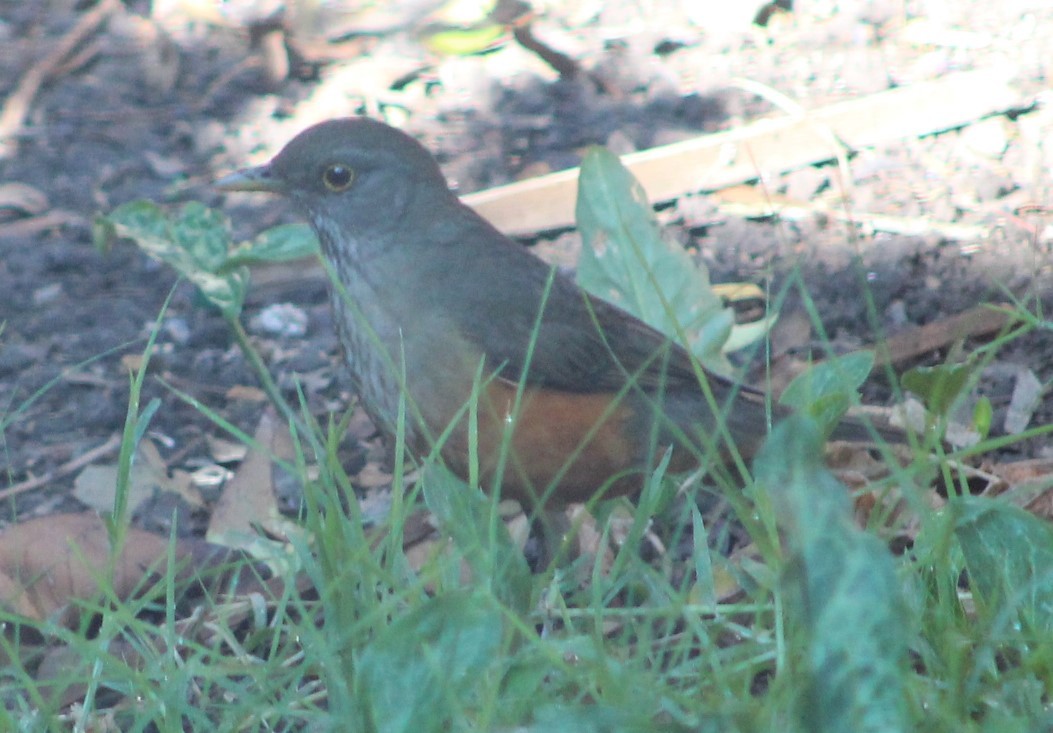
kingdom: Animalia
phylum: Chordata
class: Aves
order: Passeriformes
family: Turdidae
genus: Turdus
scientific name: Turdus rufiventris
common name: Rufous-bellied thrush
